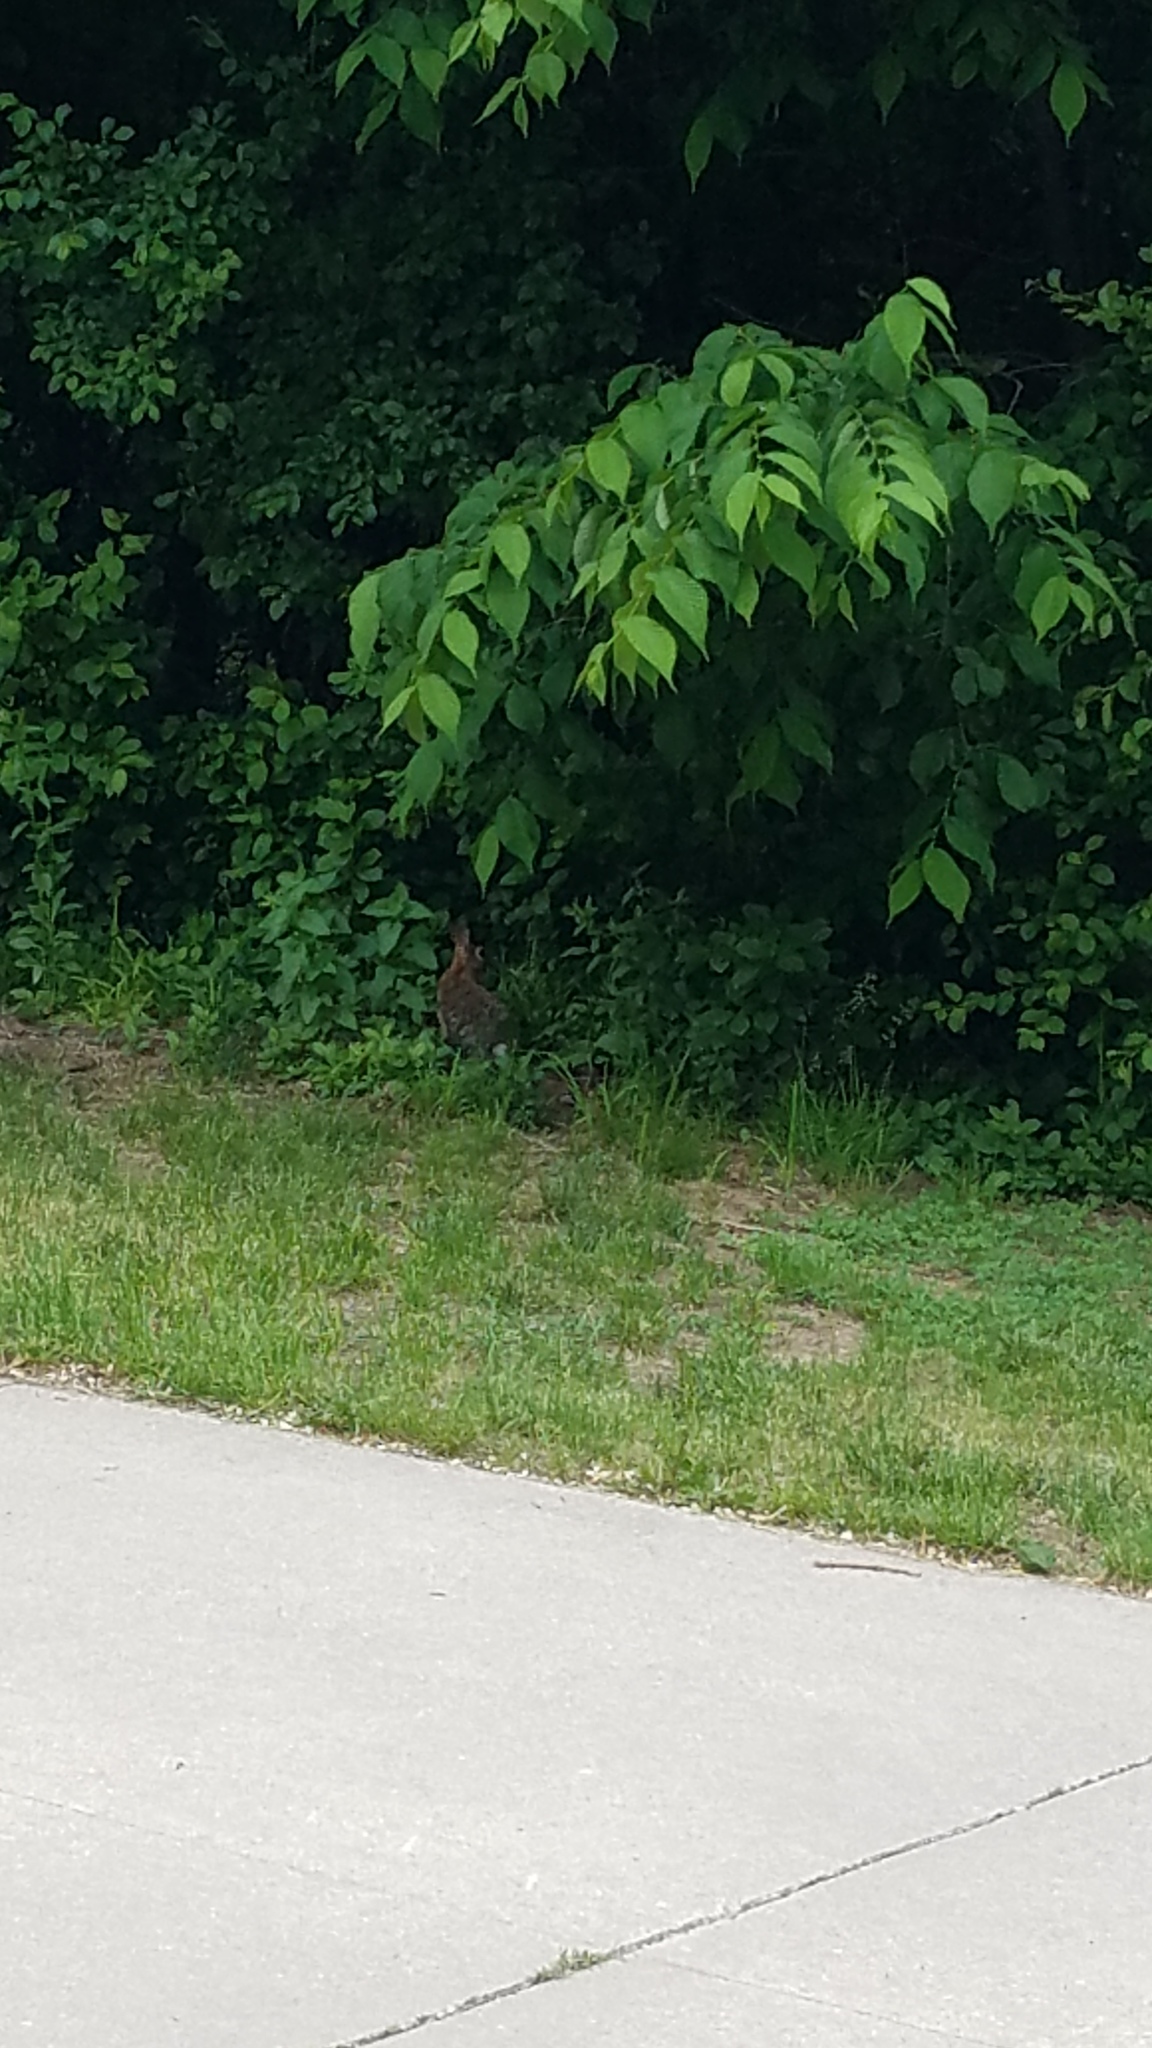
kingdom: Animalia
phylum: Chordata
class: Mammalia
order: Lagomorpha
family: Leporidae
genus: Sylvilagus
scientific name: Sylvilagus floridanus
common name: Eastern cottontail
